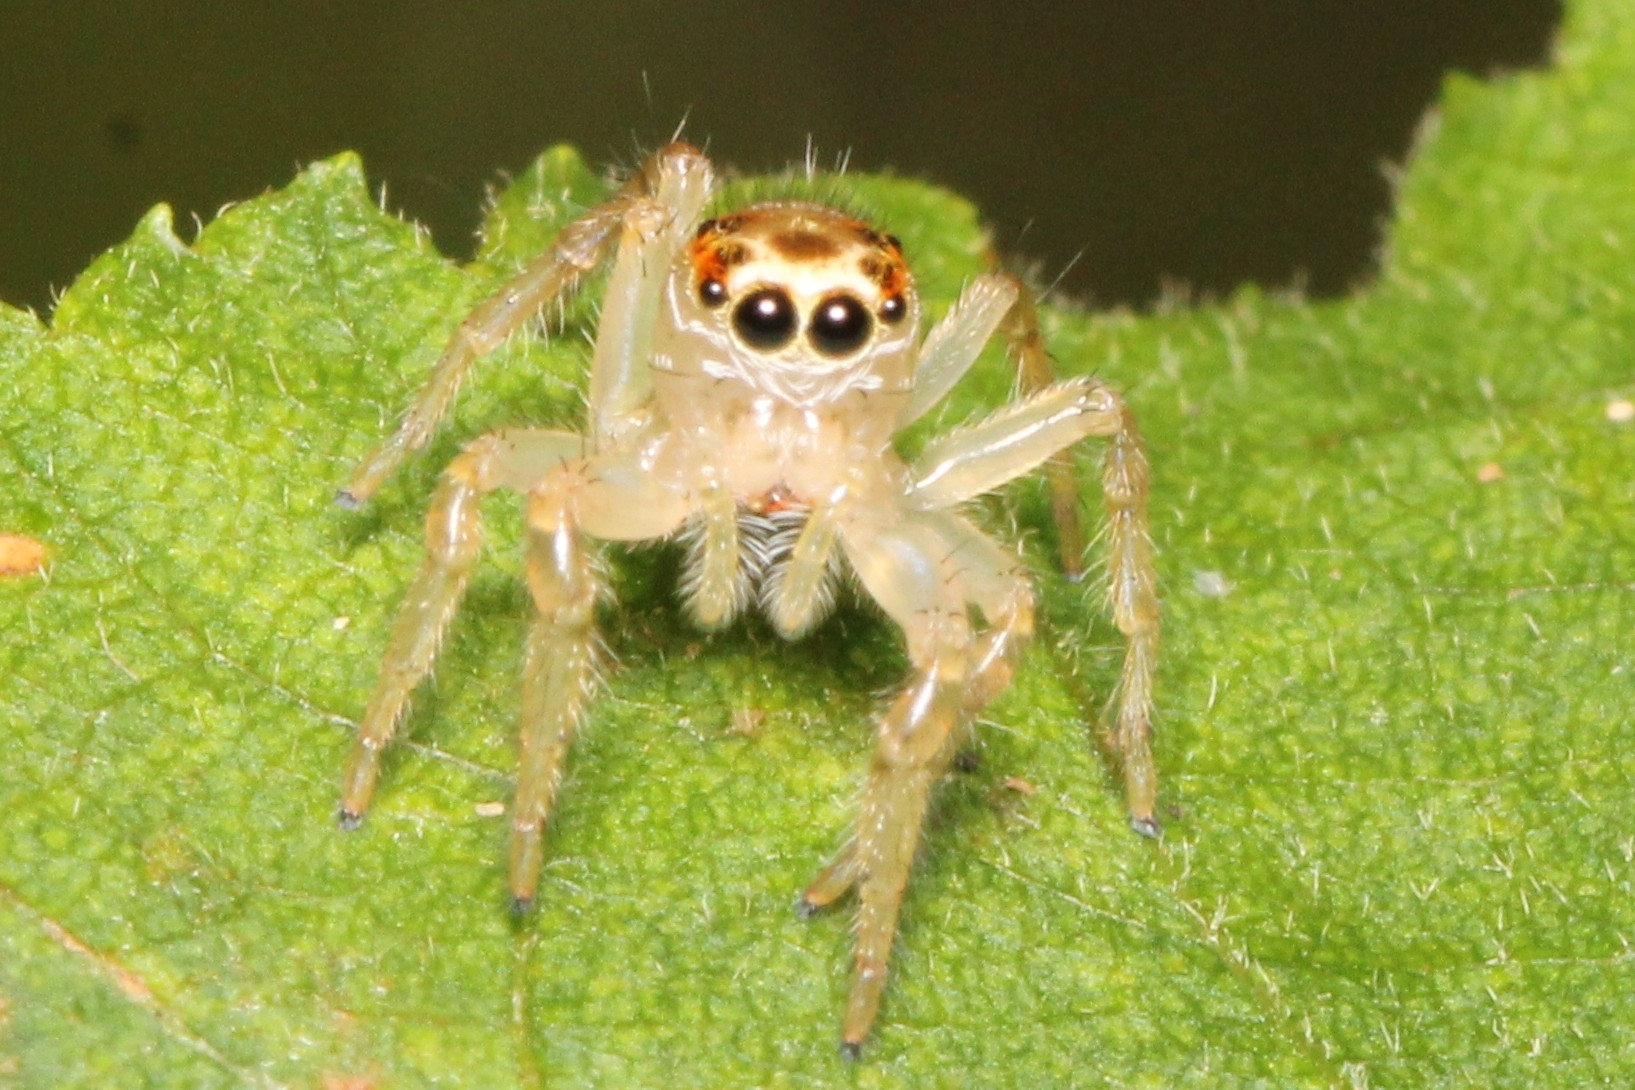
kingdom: Animalia
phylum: Arthropoda
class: Arachnida
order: Araneae
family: Salticidae
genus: Colonus
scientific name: Colonus sylvanus
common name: Jumping spiders
